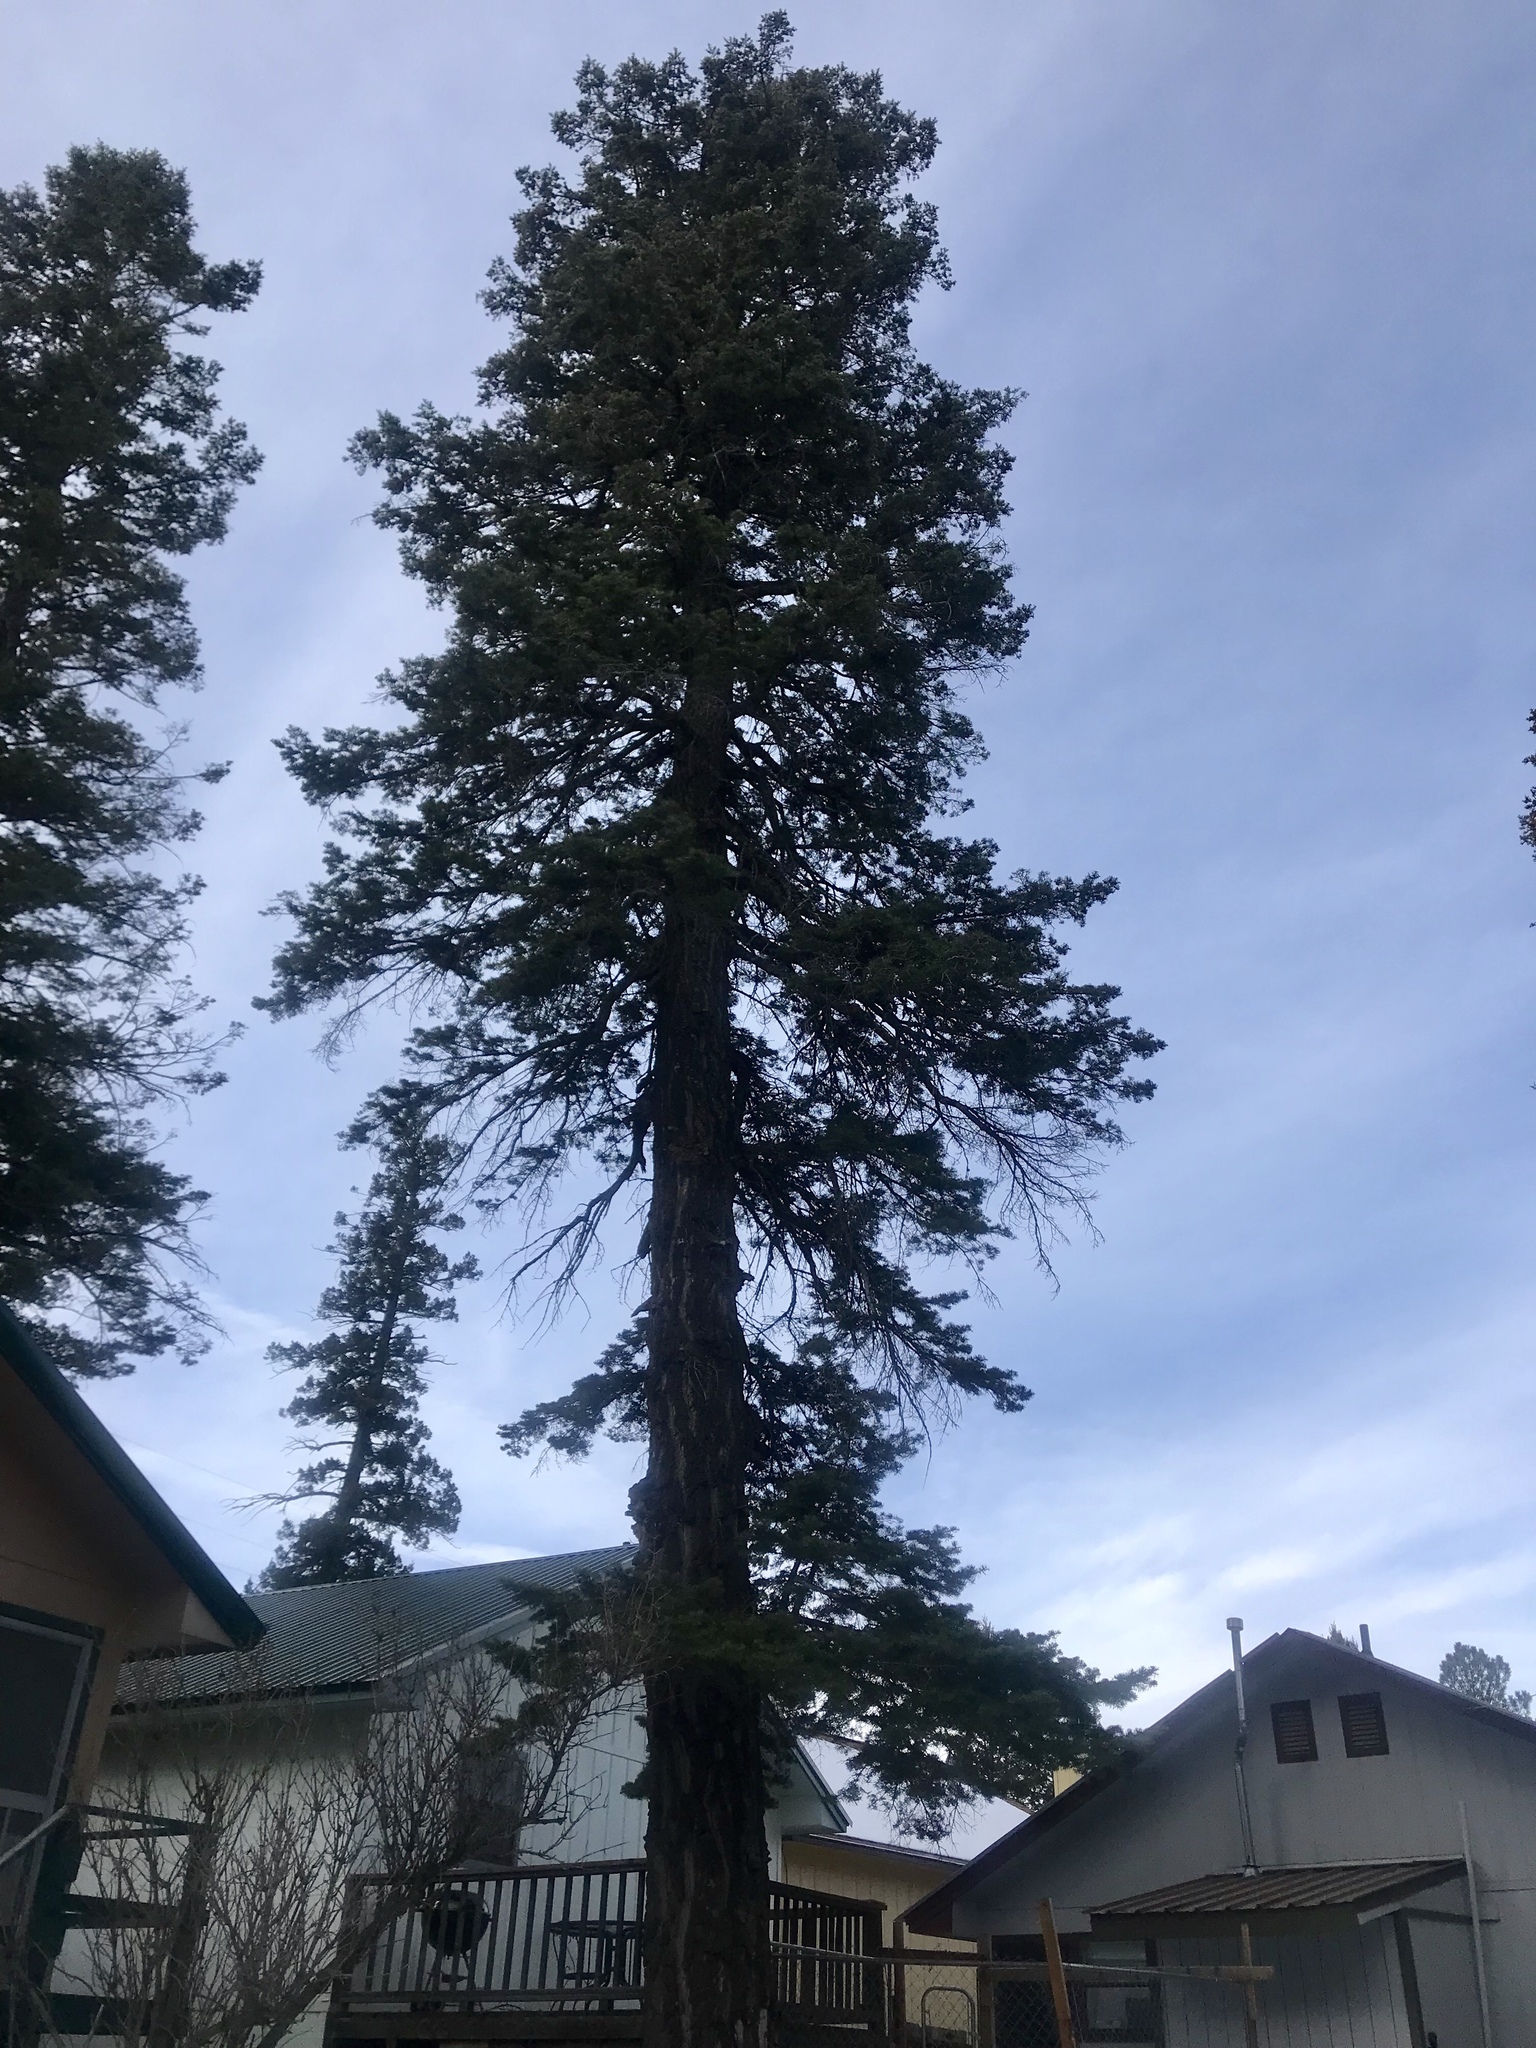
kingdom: Plantae
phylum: Tracheophyta
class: Pinopsida
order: Pinales
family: Pinaceae
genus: Pseudotsuga
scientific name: Pseudotsuga menziesii
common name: Douglas fir
